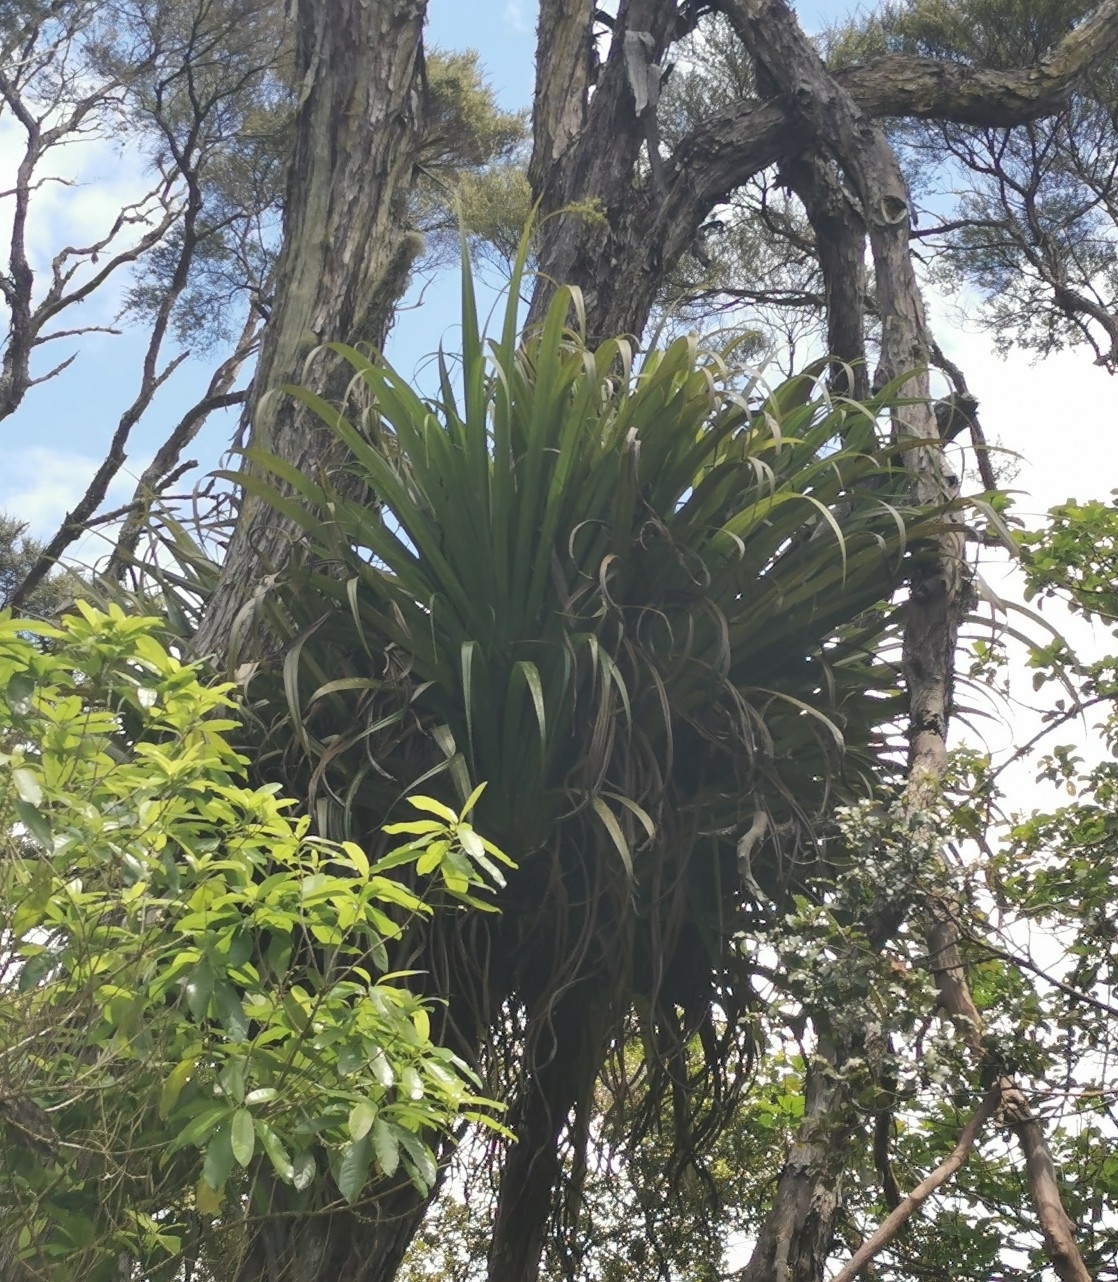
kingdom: Plantae
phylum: Tracheophyta
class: Liliopsida
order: Asparagales
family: Asteliaceae
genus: Astelia
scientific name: Astelia hastata
